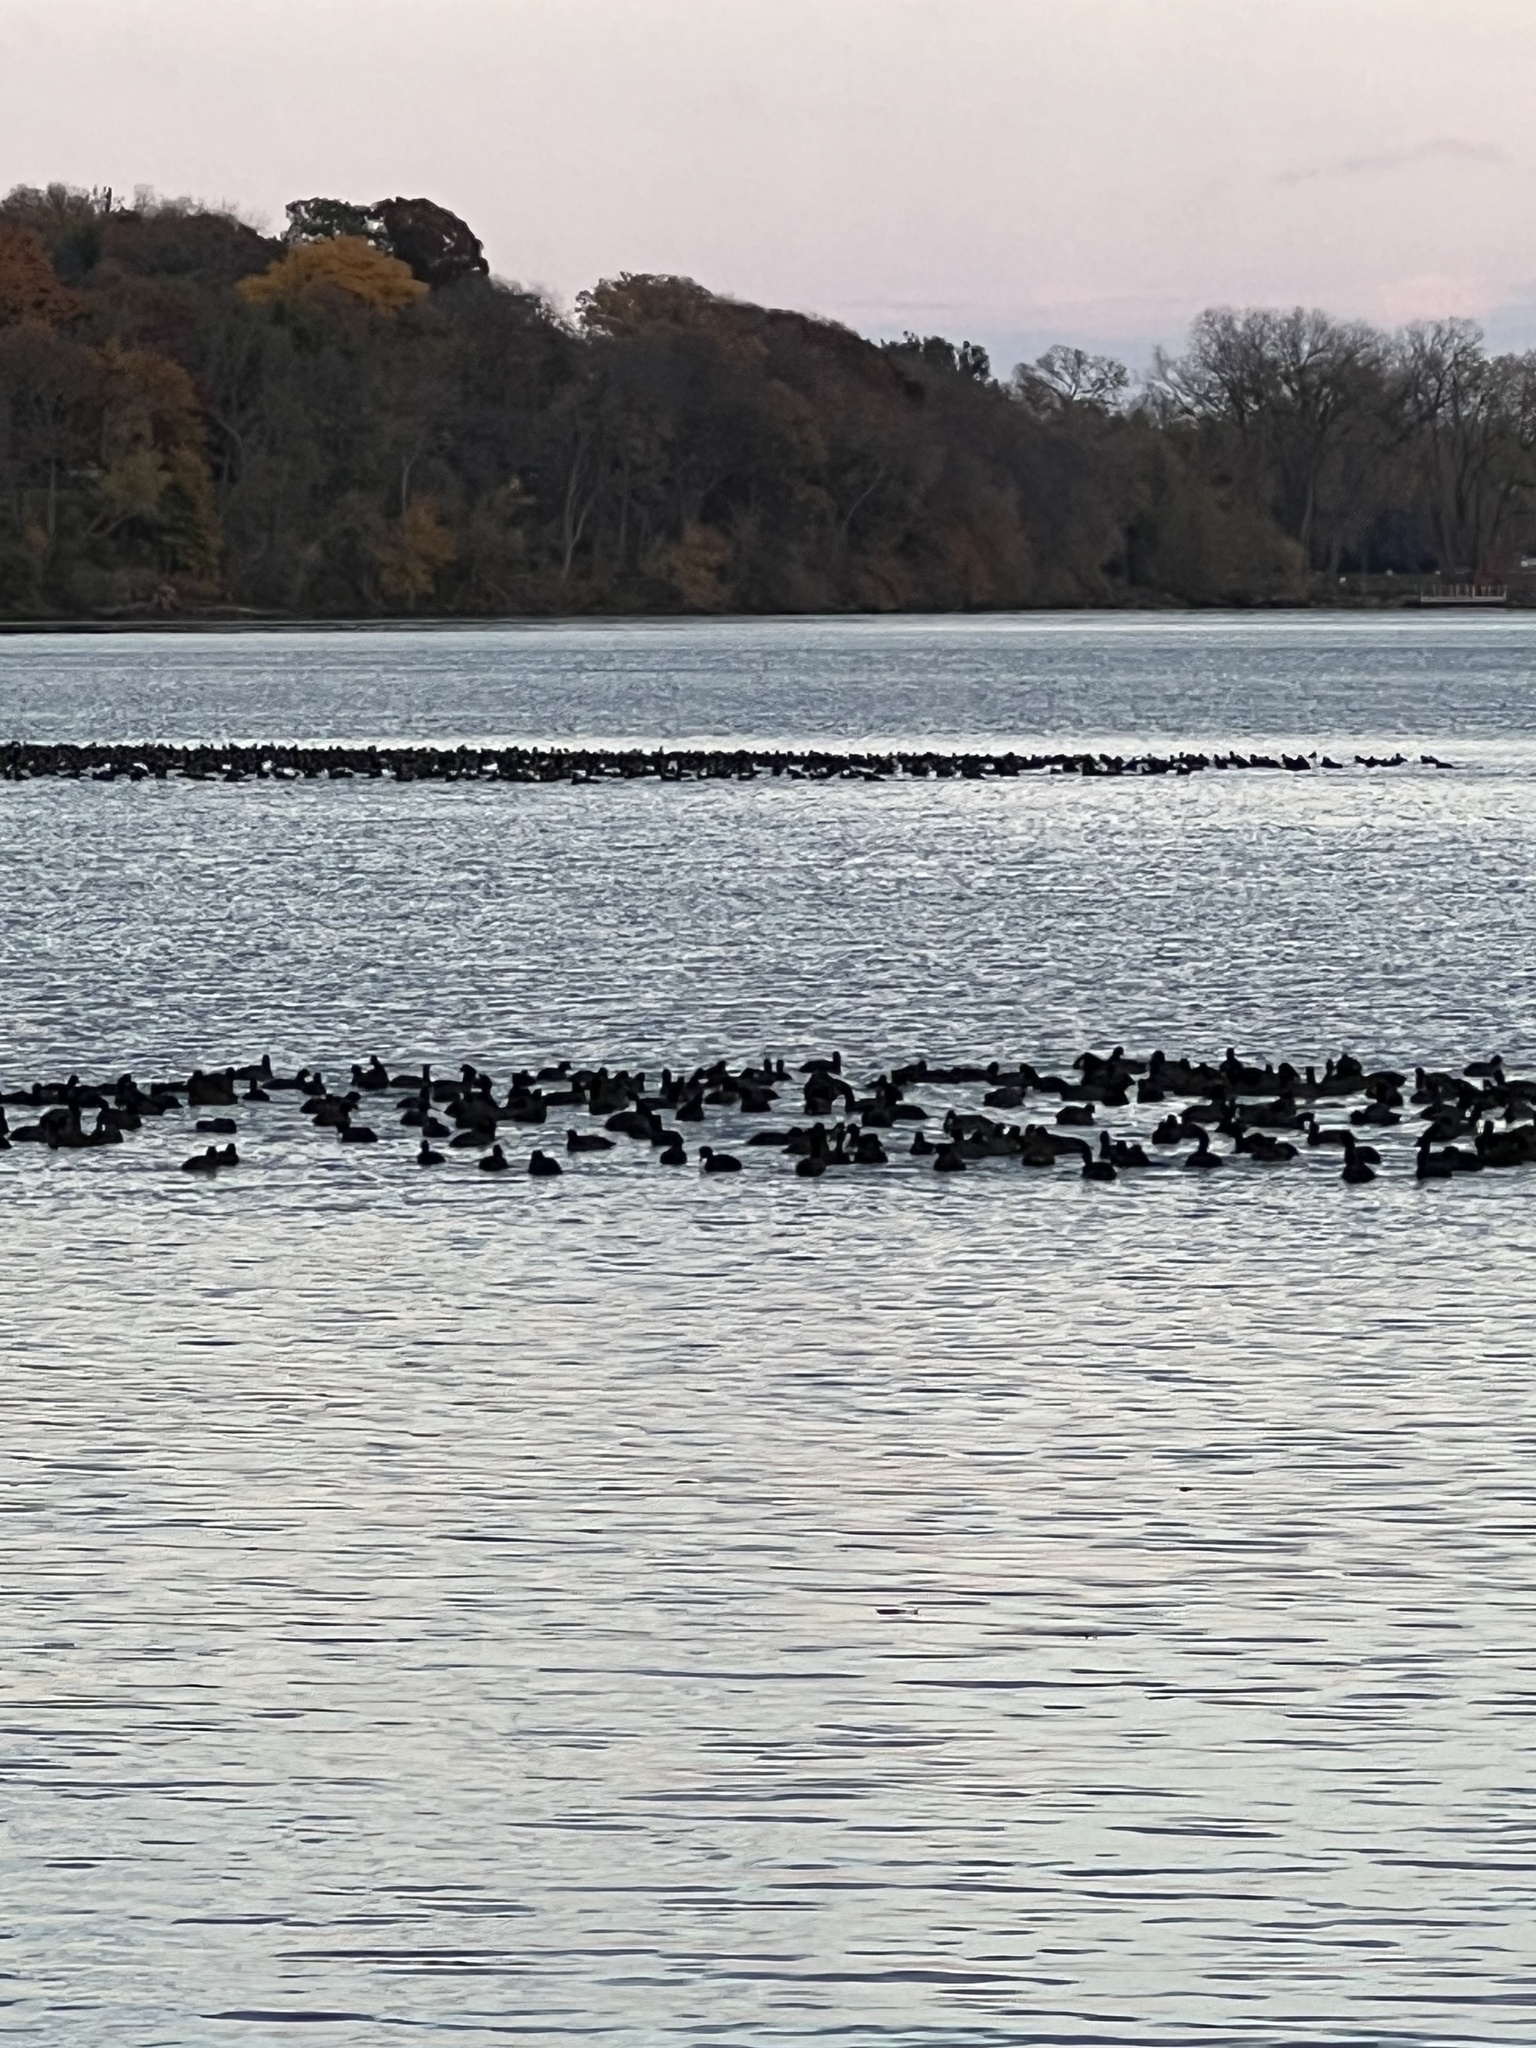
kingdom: Animalia
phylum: Chordata
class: Aves
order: Gruiformes
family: Rallidae
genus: Fulica
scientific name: Fulica americana
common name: American coot
